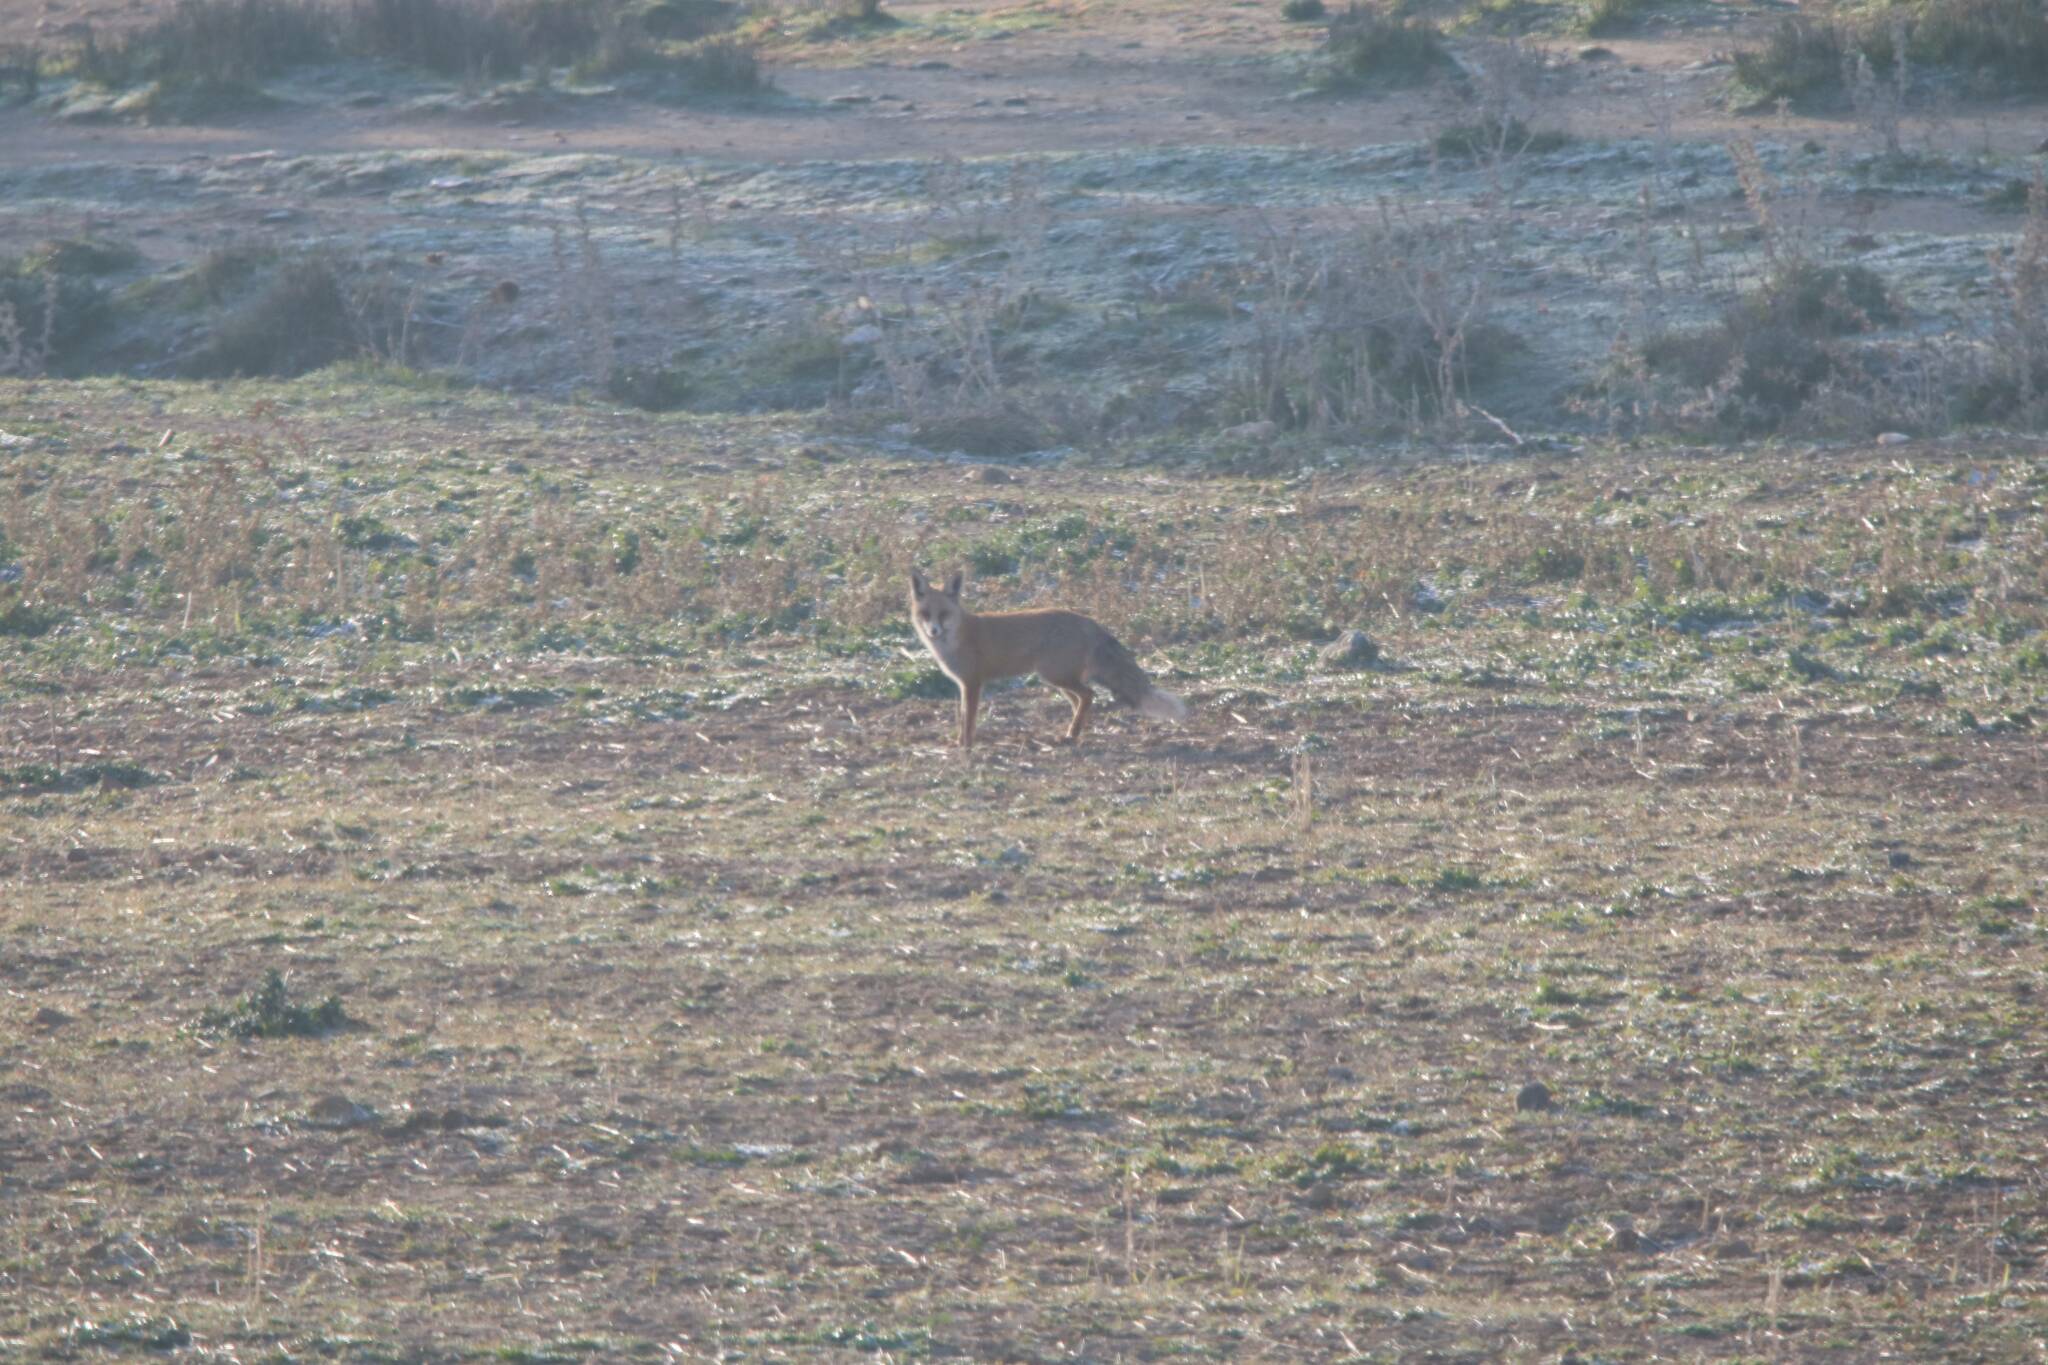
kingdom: Animalia
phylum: Chordata
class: Mammalia
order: Carnivora
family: Canidae
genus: Vulpes
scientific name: Vulpes vulpes
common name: Red fox
